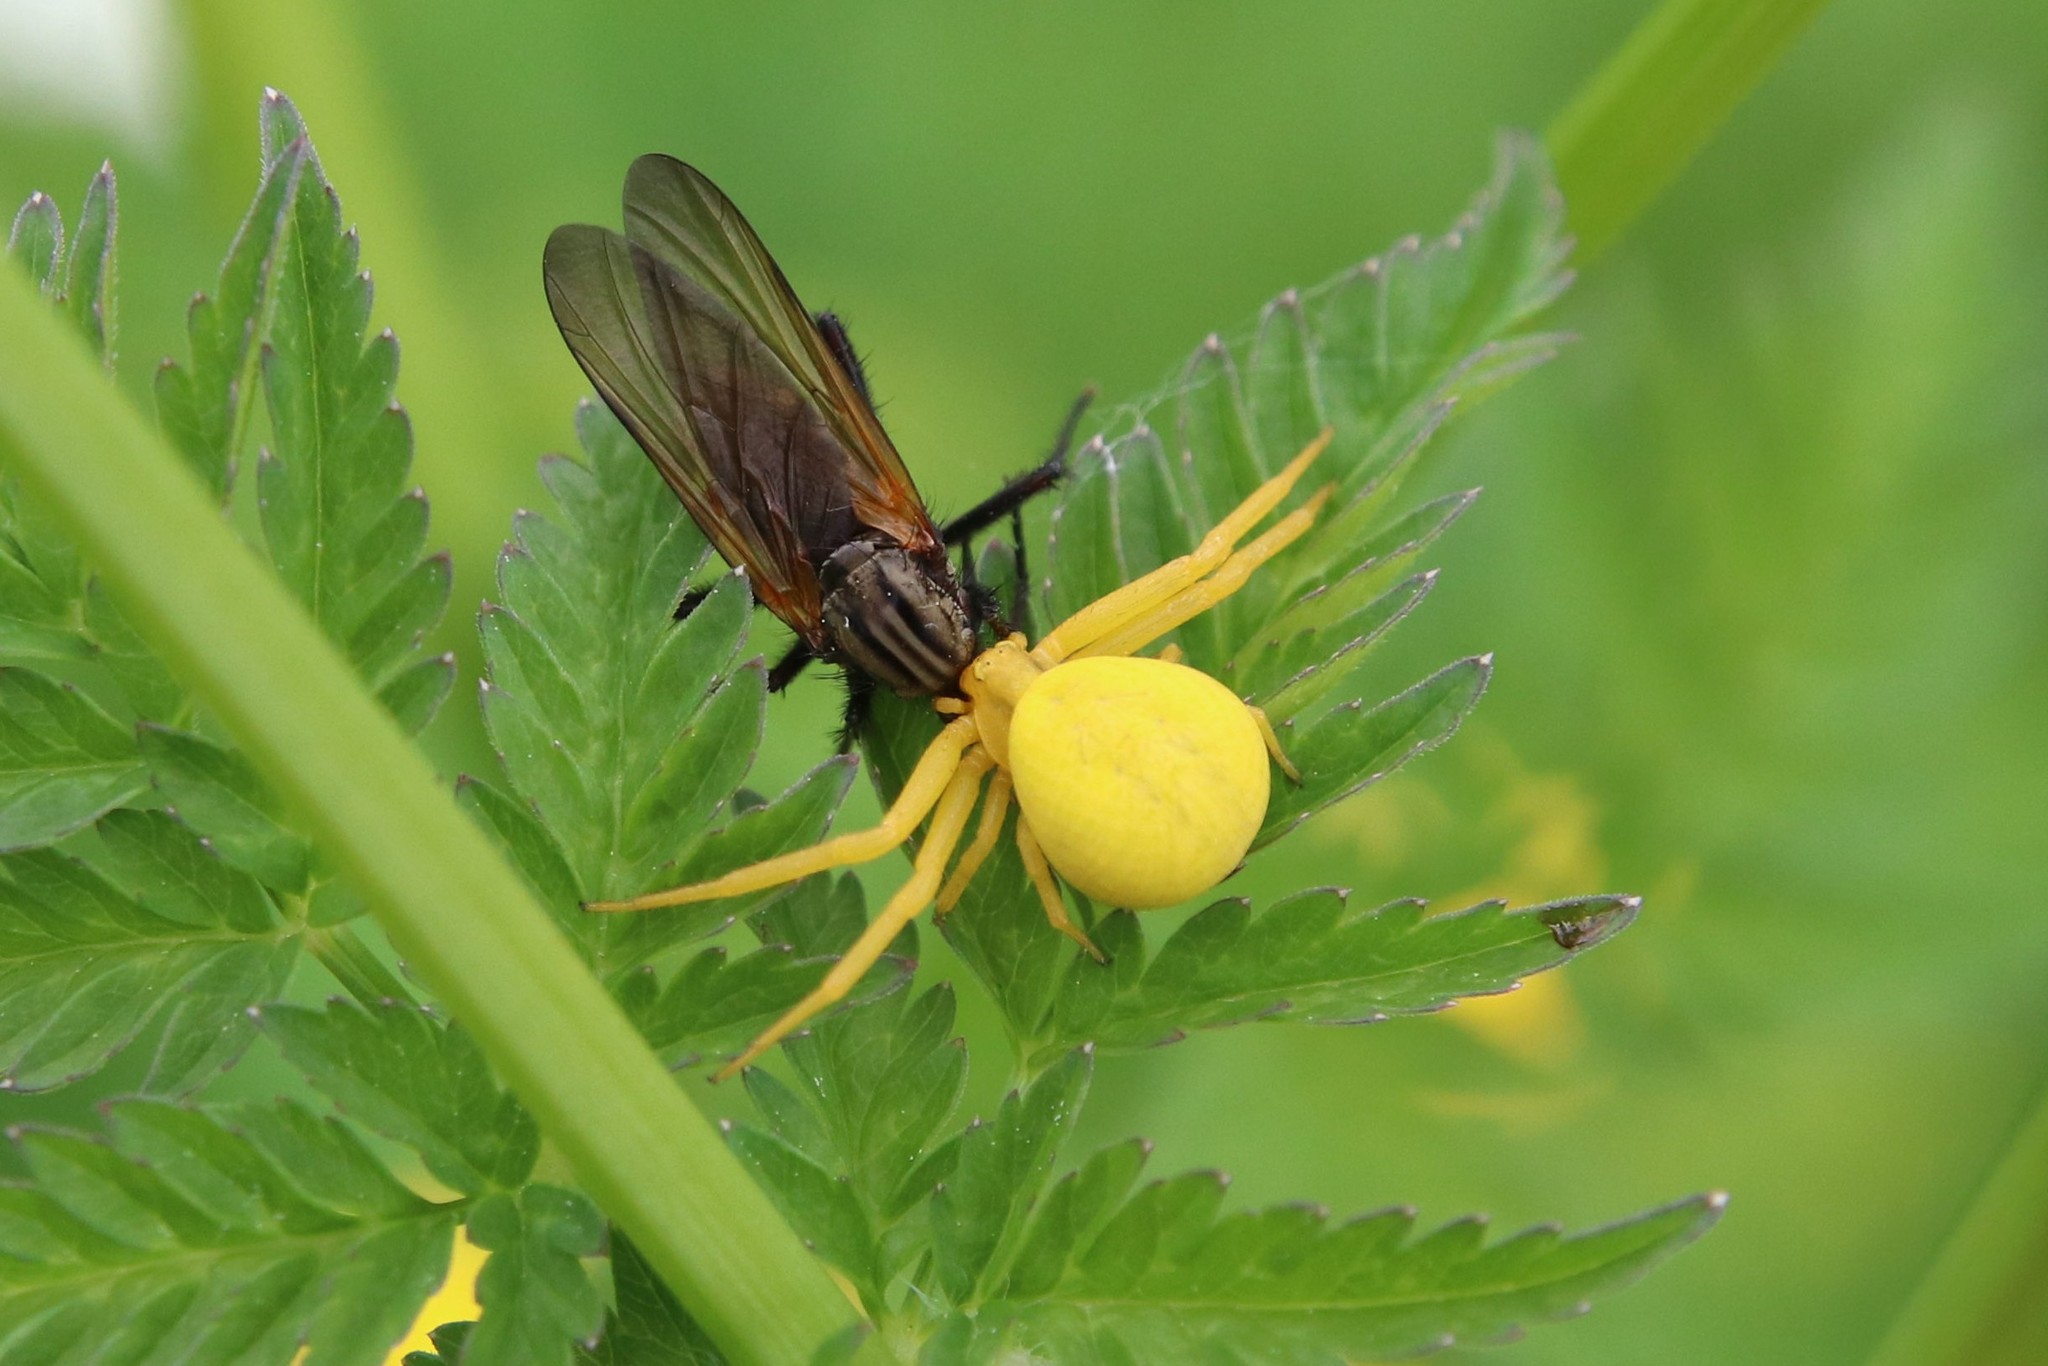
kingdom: Animalia
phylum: Arthropoda
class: Arachnida
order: Araneae
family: Thomisidae
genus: Misumena
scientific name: Misumena vatia
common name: Goldenrod crab spider
